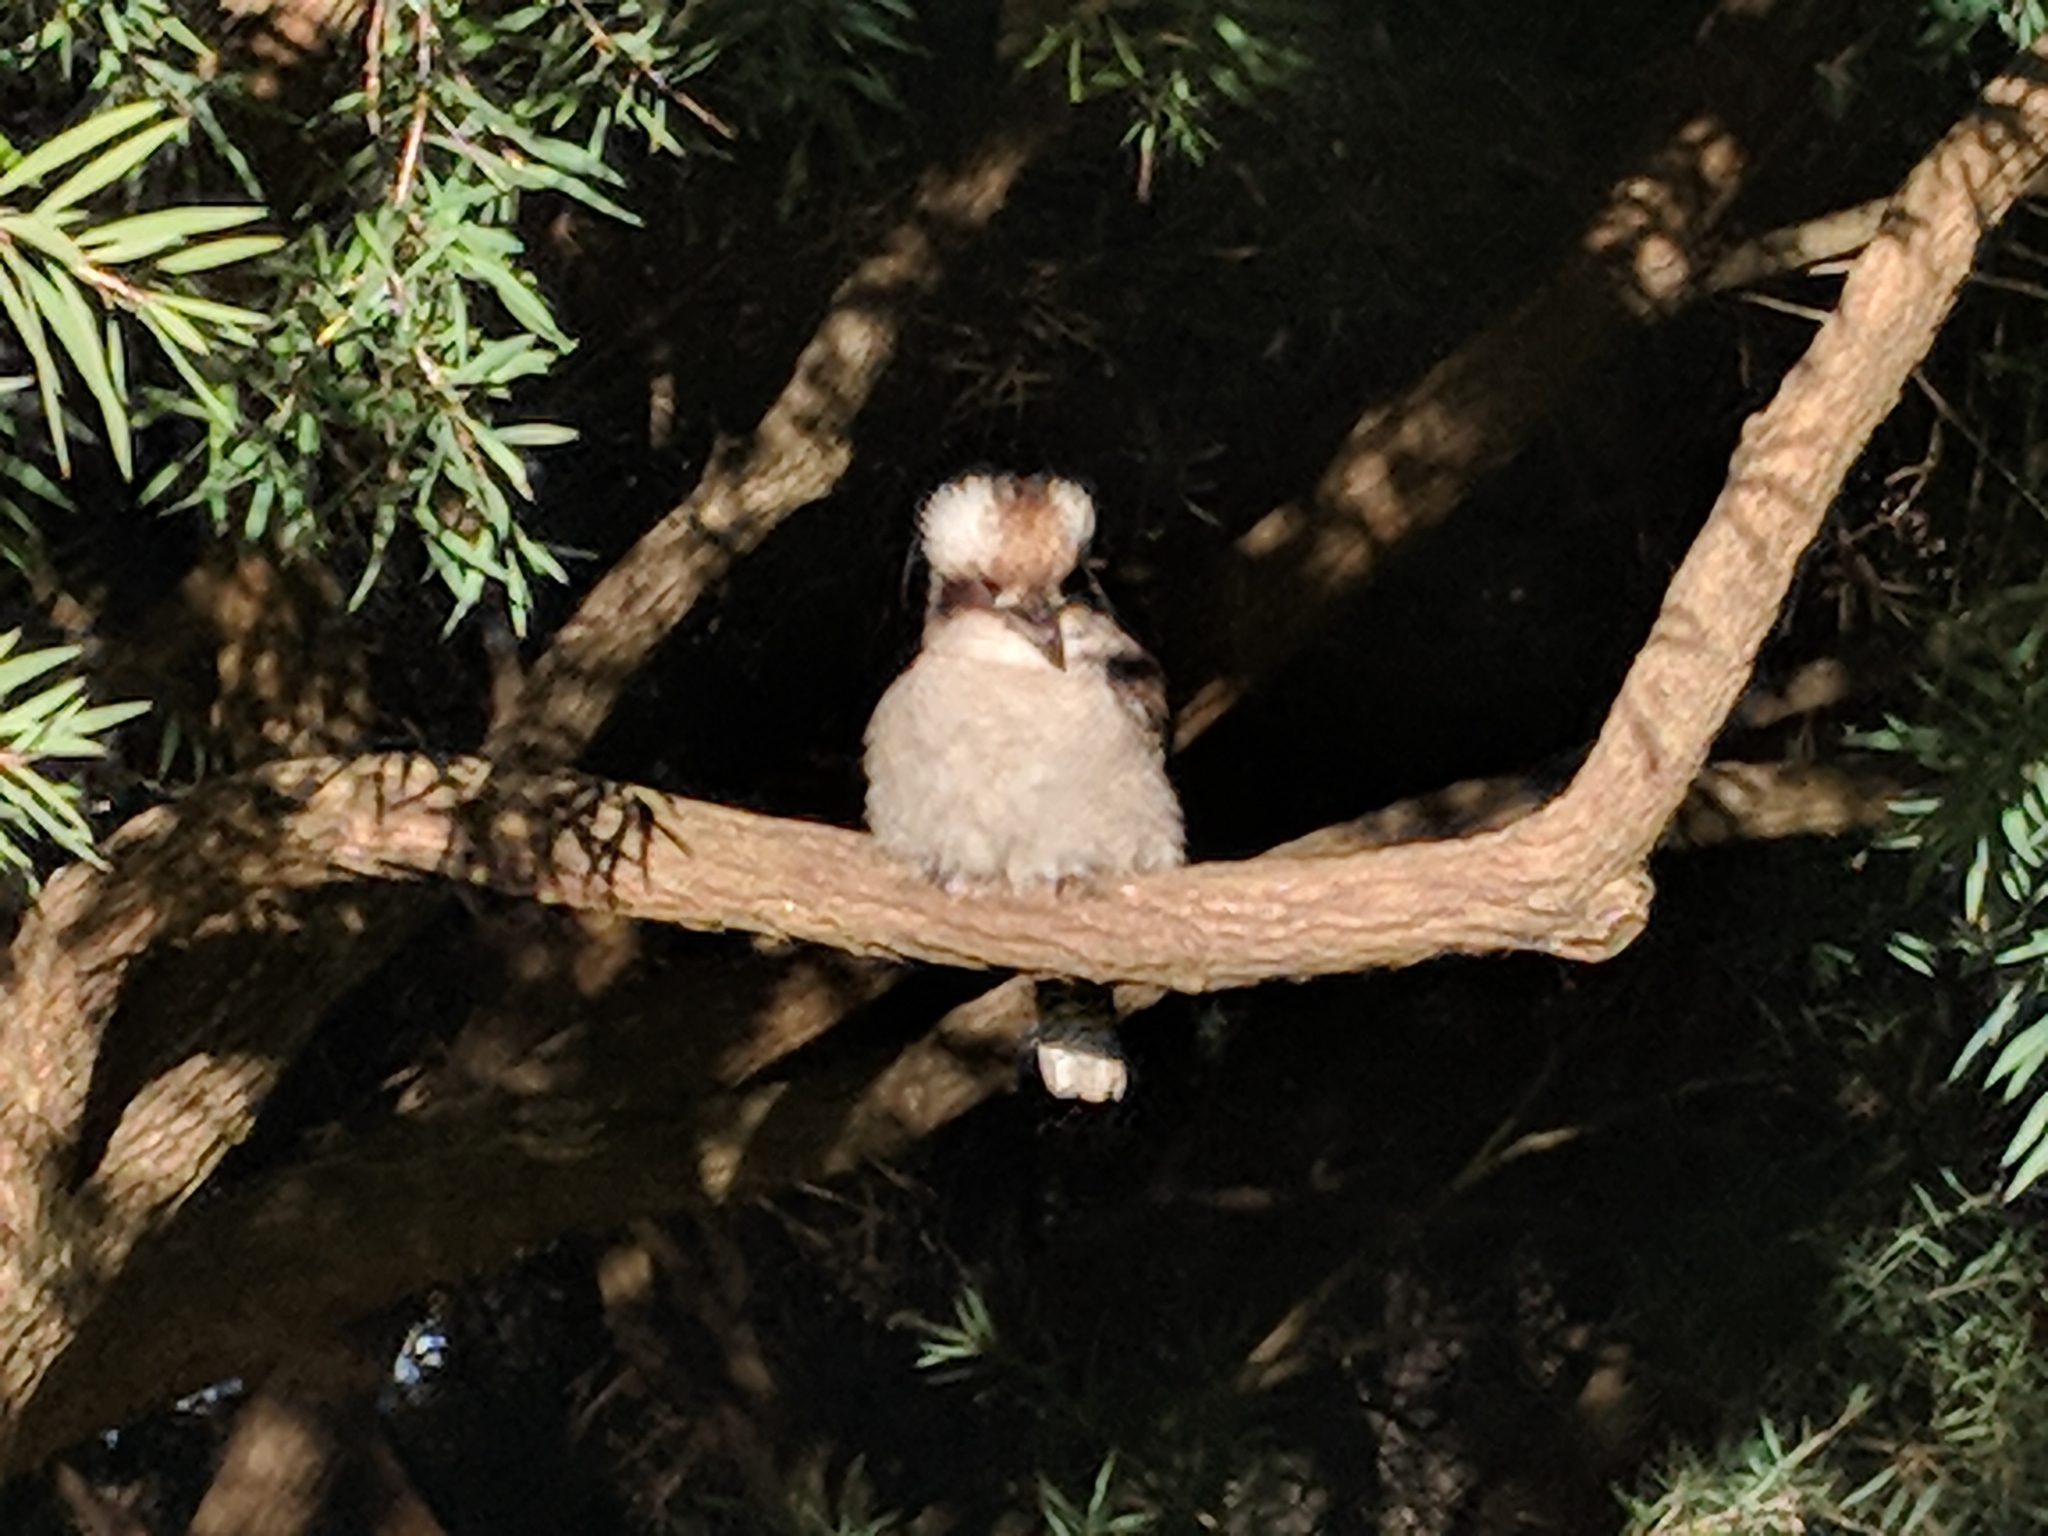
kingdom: Animalia
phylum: Chordata
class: Aves
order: Coraciiformes
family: Alcedinidae
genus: Dacelo
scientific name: Dacelo novaeguineae
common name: Laughing kookaburra
